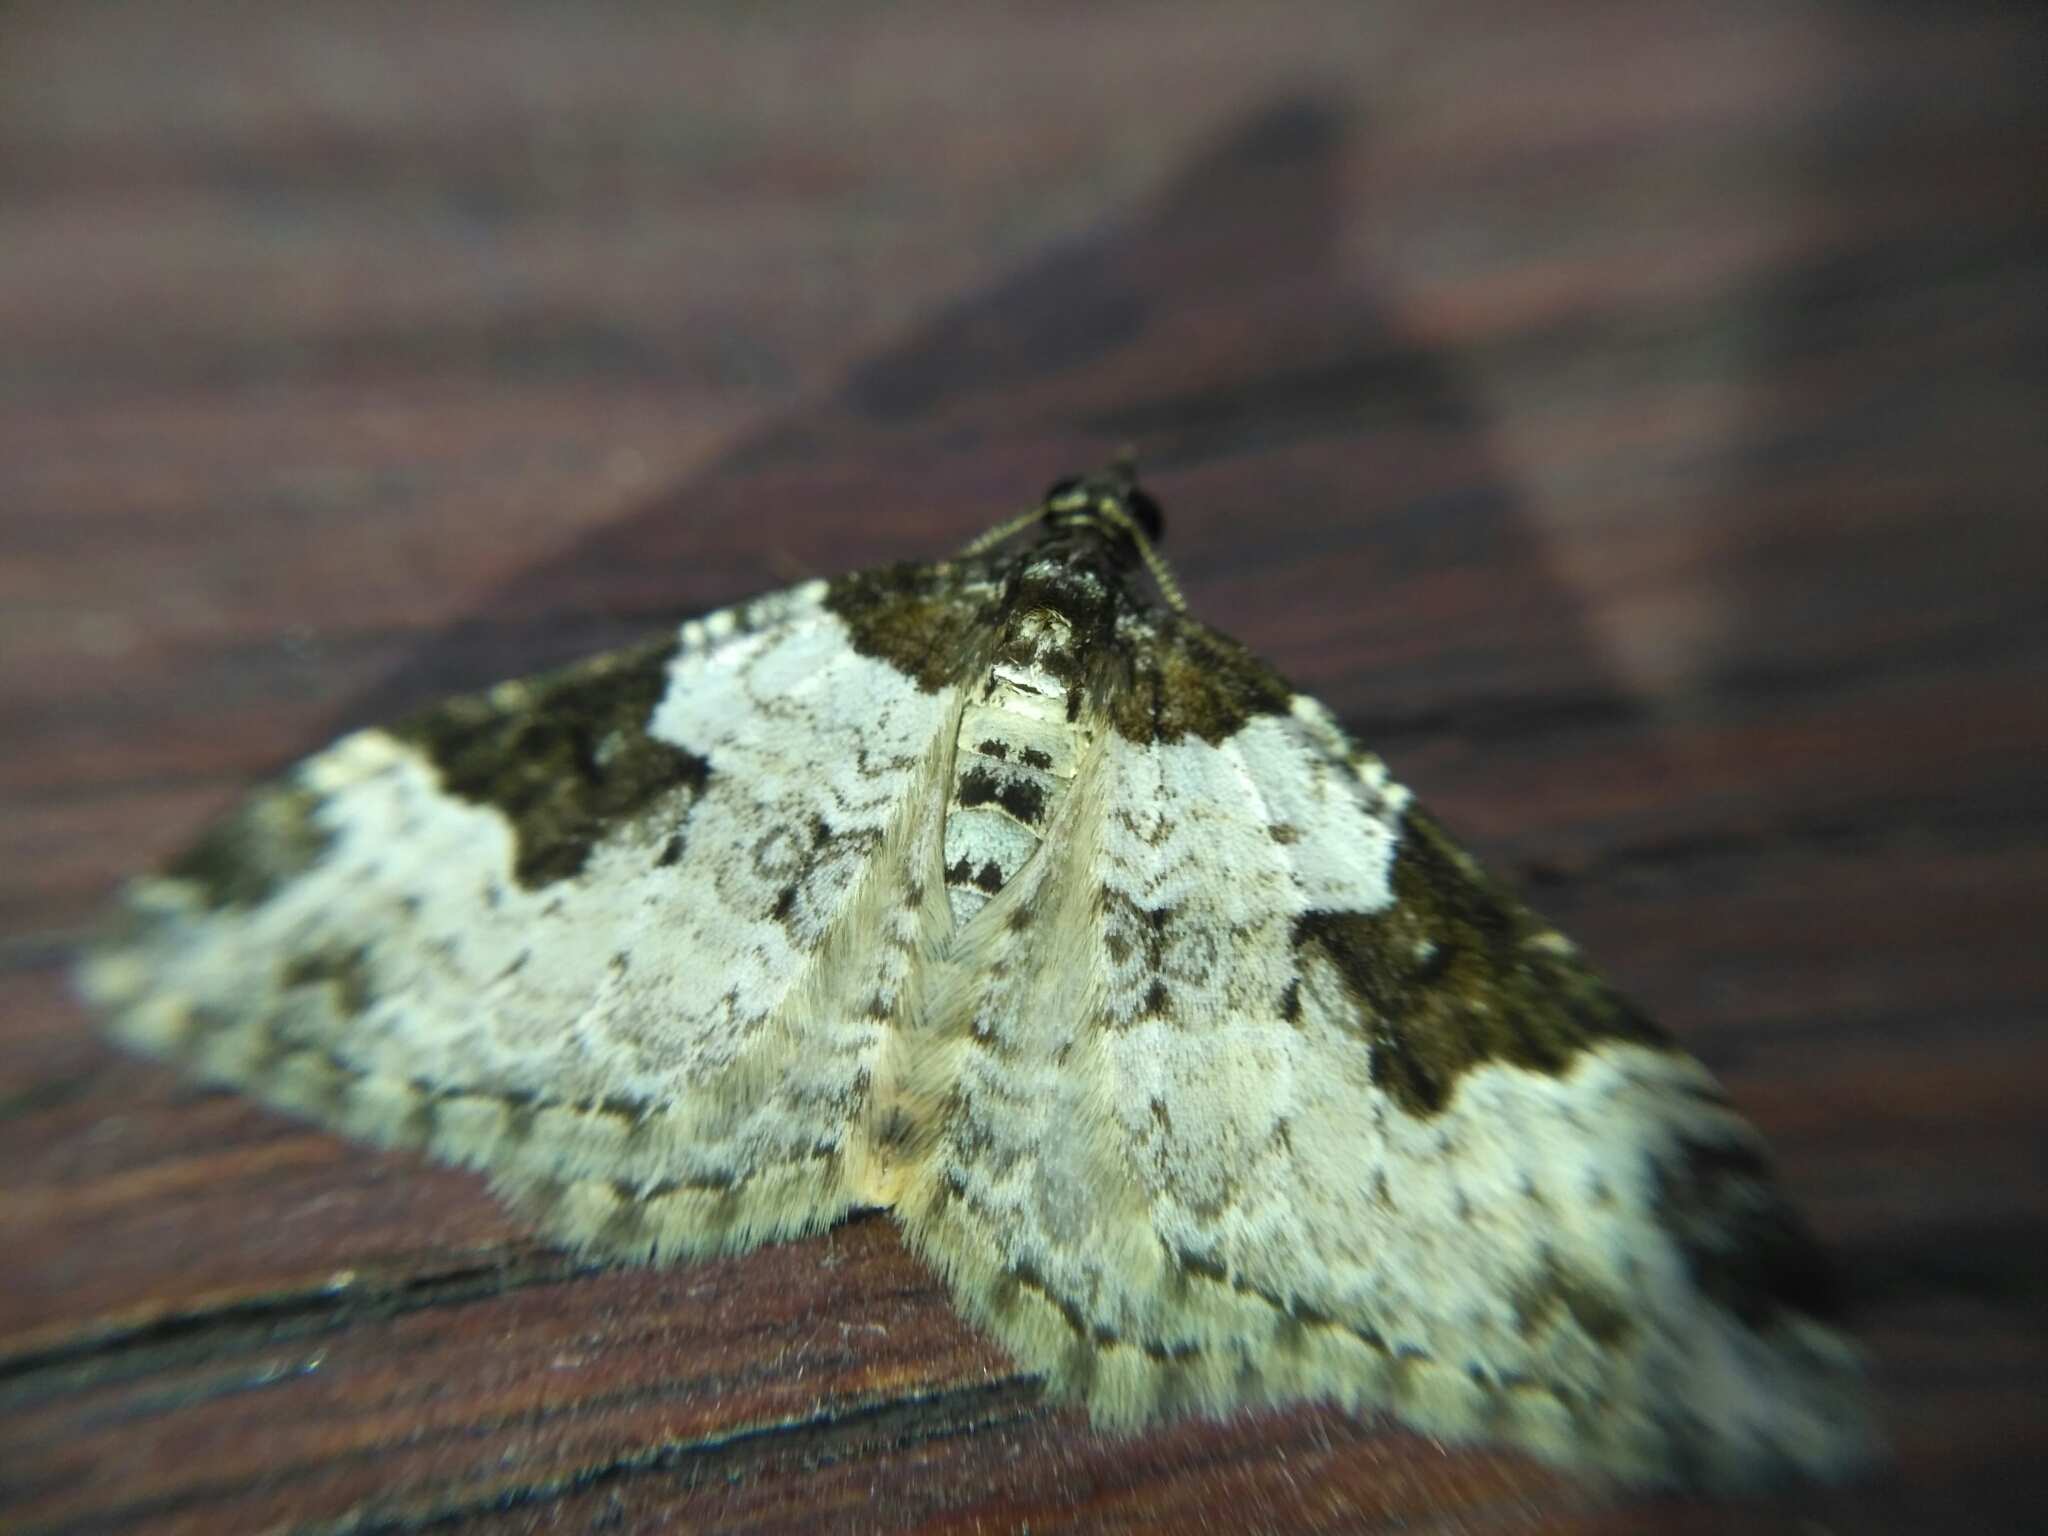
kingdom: Animalia
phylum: Arthropoda
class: Insecta
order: Lepidoptera
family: Geometridae
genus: Xanthorhoe
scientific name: Xanthorhoe fluctuata
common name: Garden carpet
